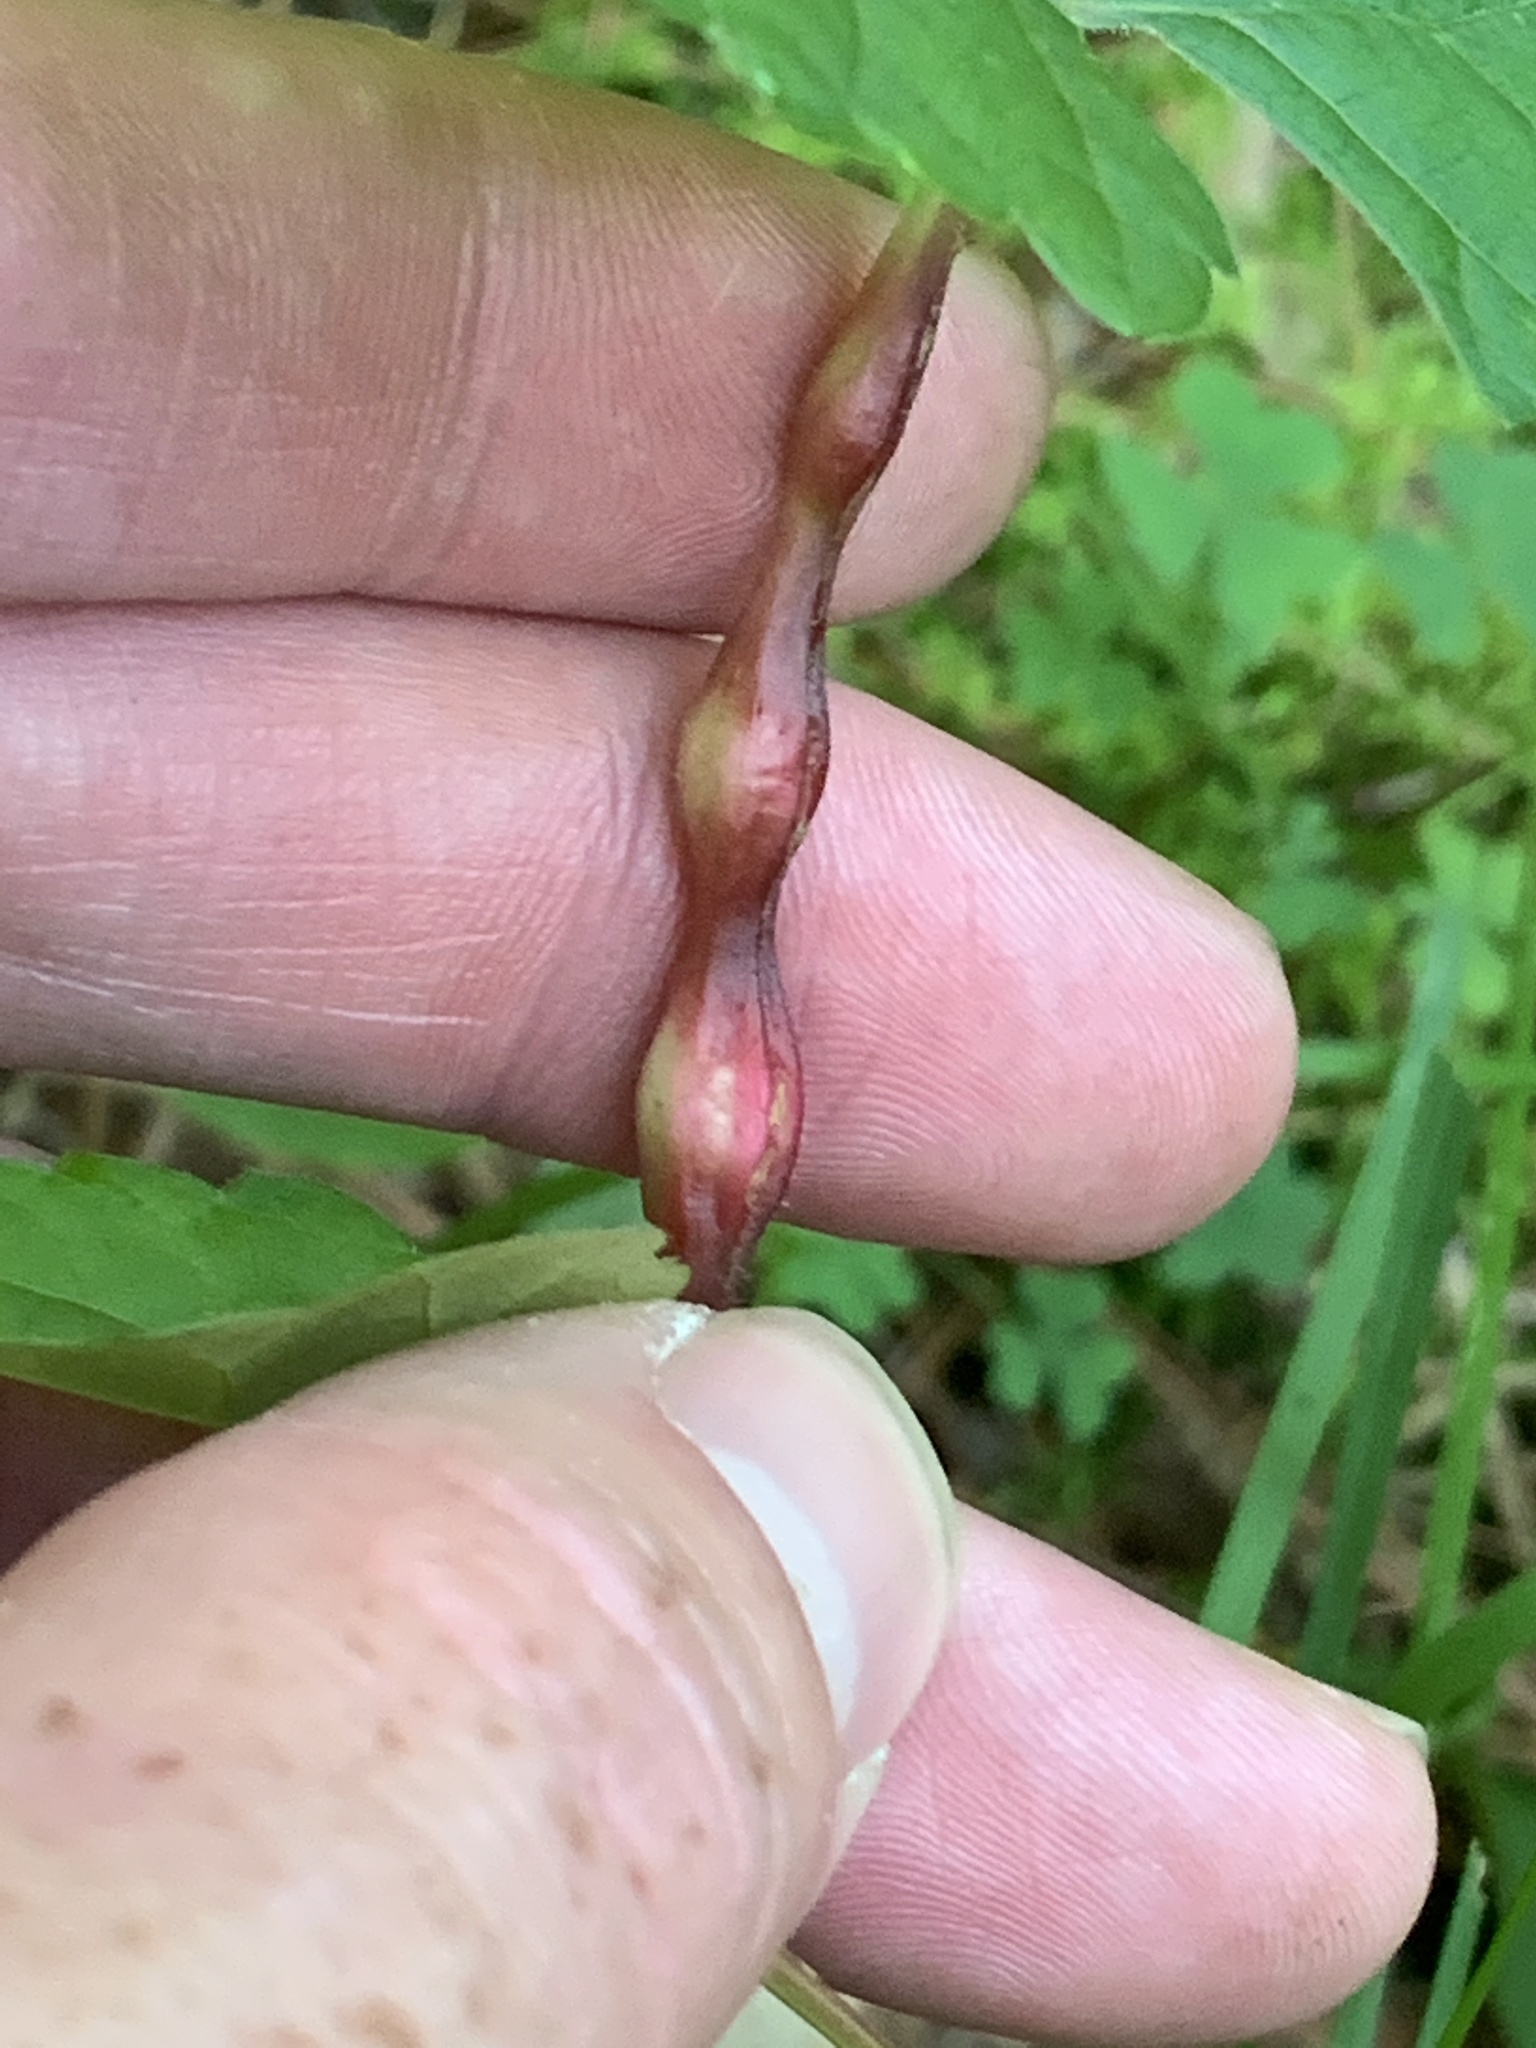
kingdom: Animalia
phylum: Arthropoda
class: Insecta
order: Diptera
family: Cecidomyiidae
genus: Neolasioptera
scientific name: Neolasioptera vitinea
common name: Grape leaf petiole gall
